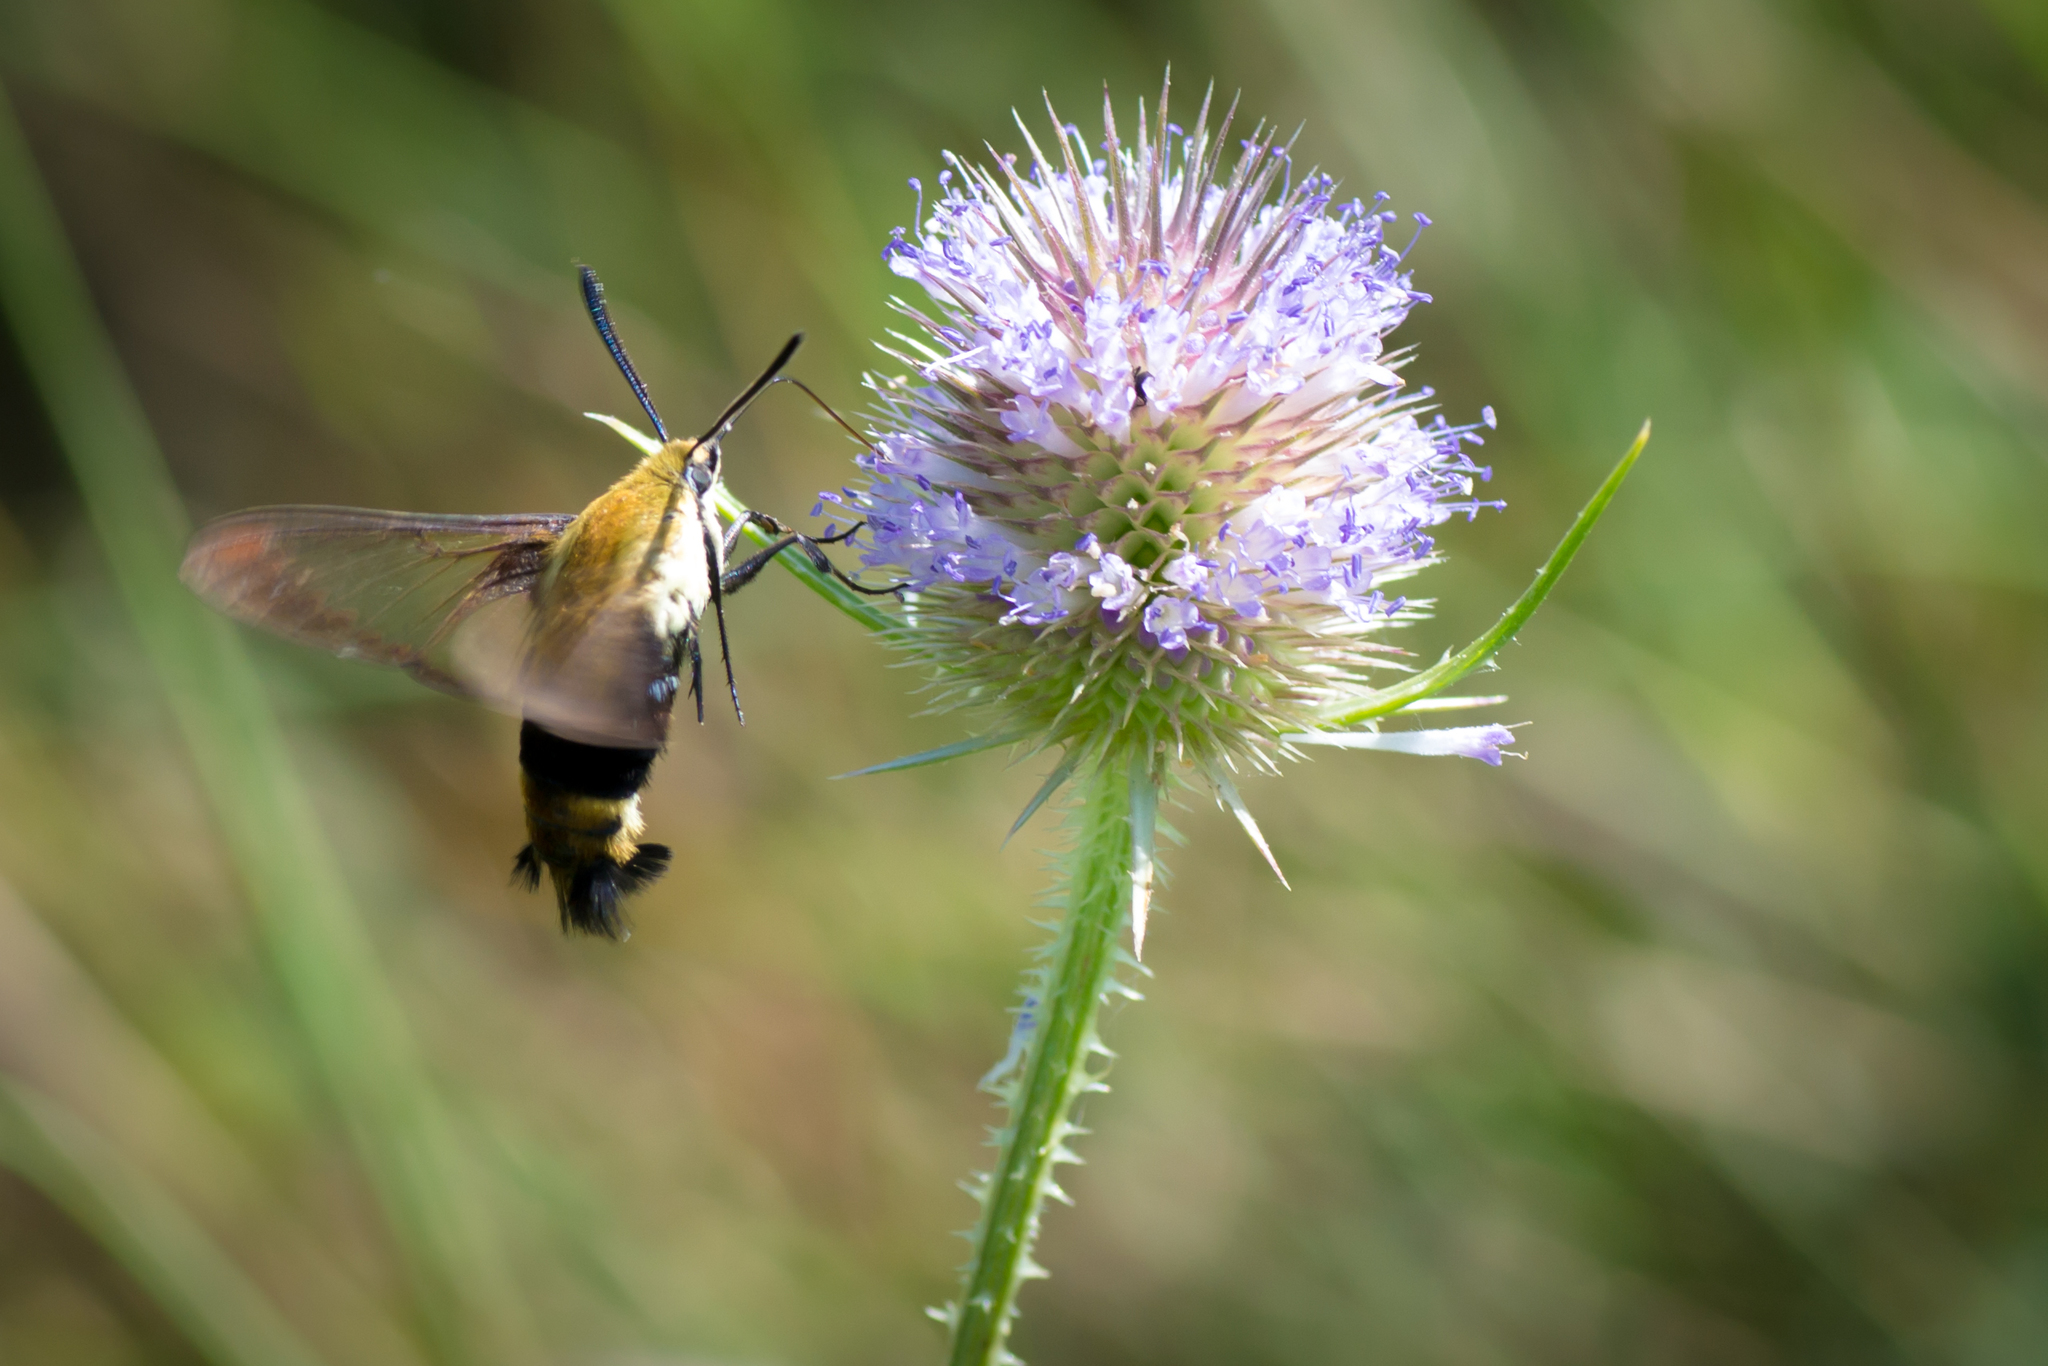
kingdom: Animalia
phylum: Arthropoda
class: Insecta
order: Lepidoptera
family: Sphingidae
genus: Hemaris
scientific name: Hemaris diffinis
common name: Bumblebee moth
